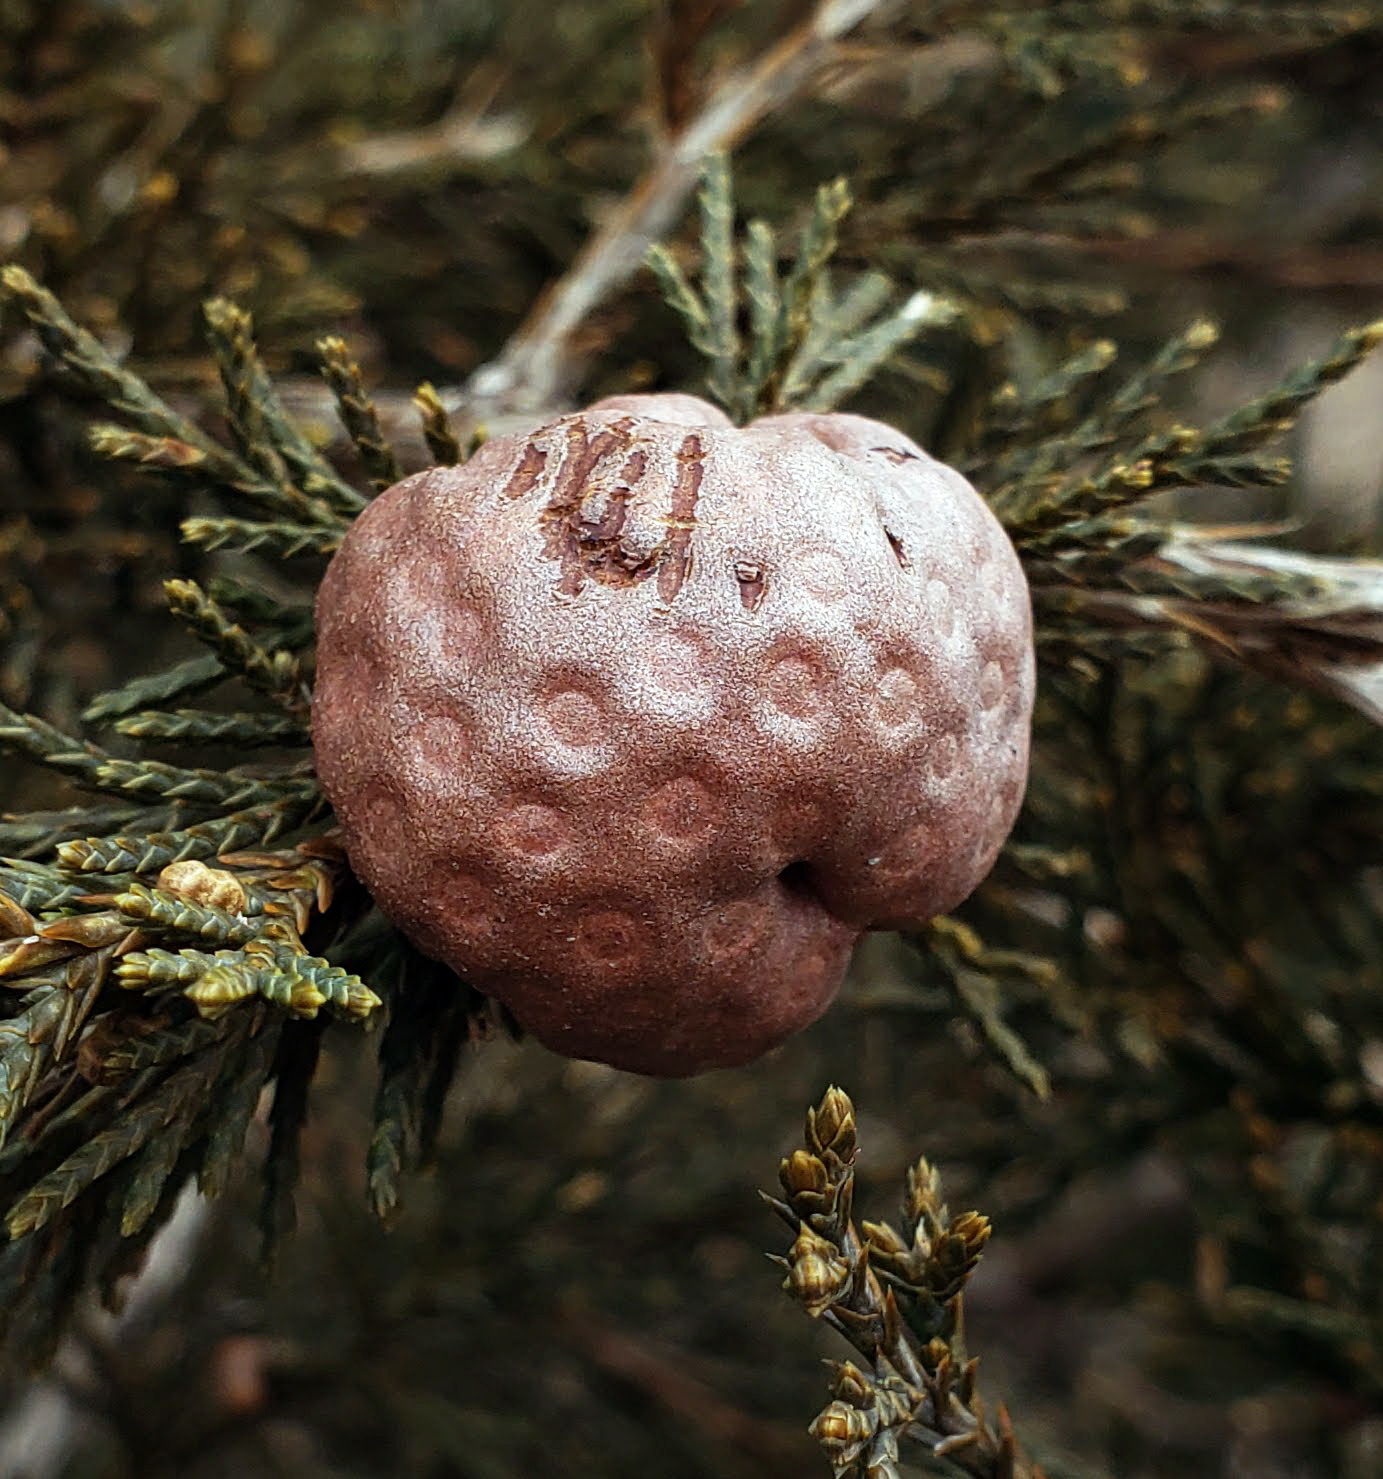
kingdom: Fungi
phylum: Basidiomycota
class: Pucciniomycetes
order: Pucciniales
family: Gymnosporangiaceae
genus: Gymnosporangium
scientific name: Gymnosporangium juniperi-virginianae
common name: Juniper-apple rust
